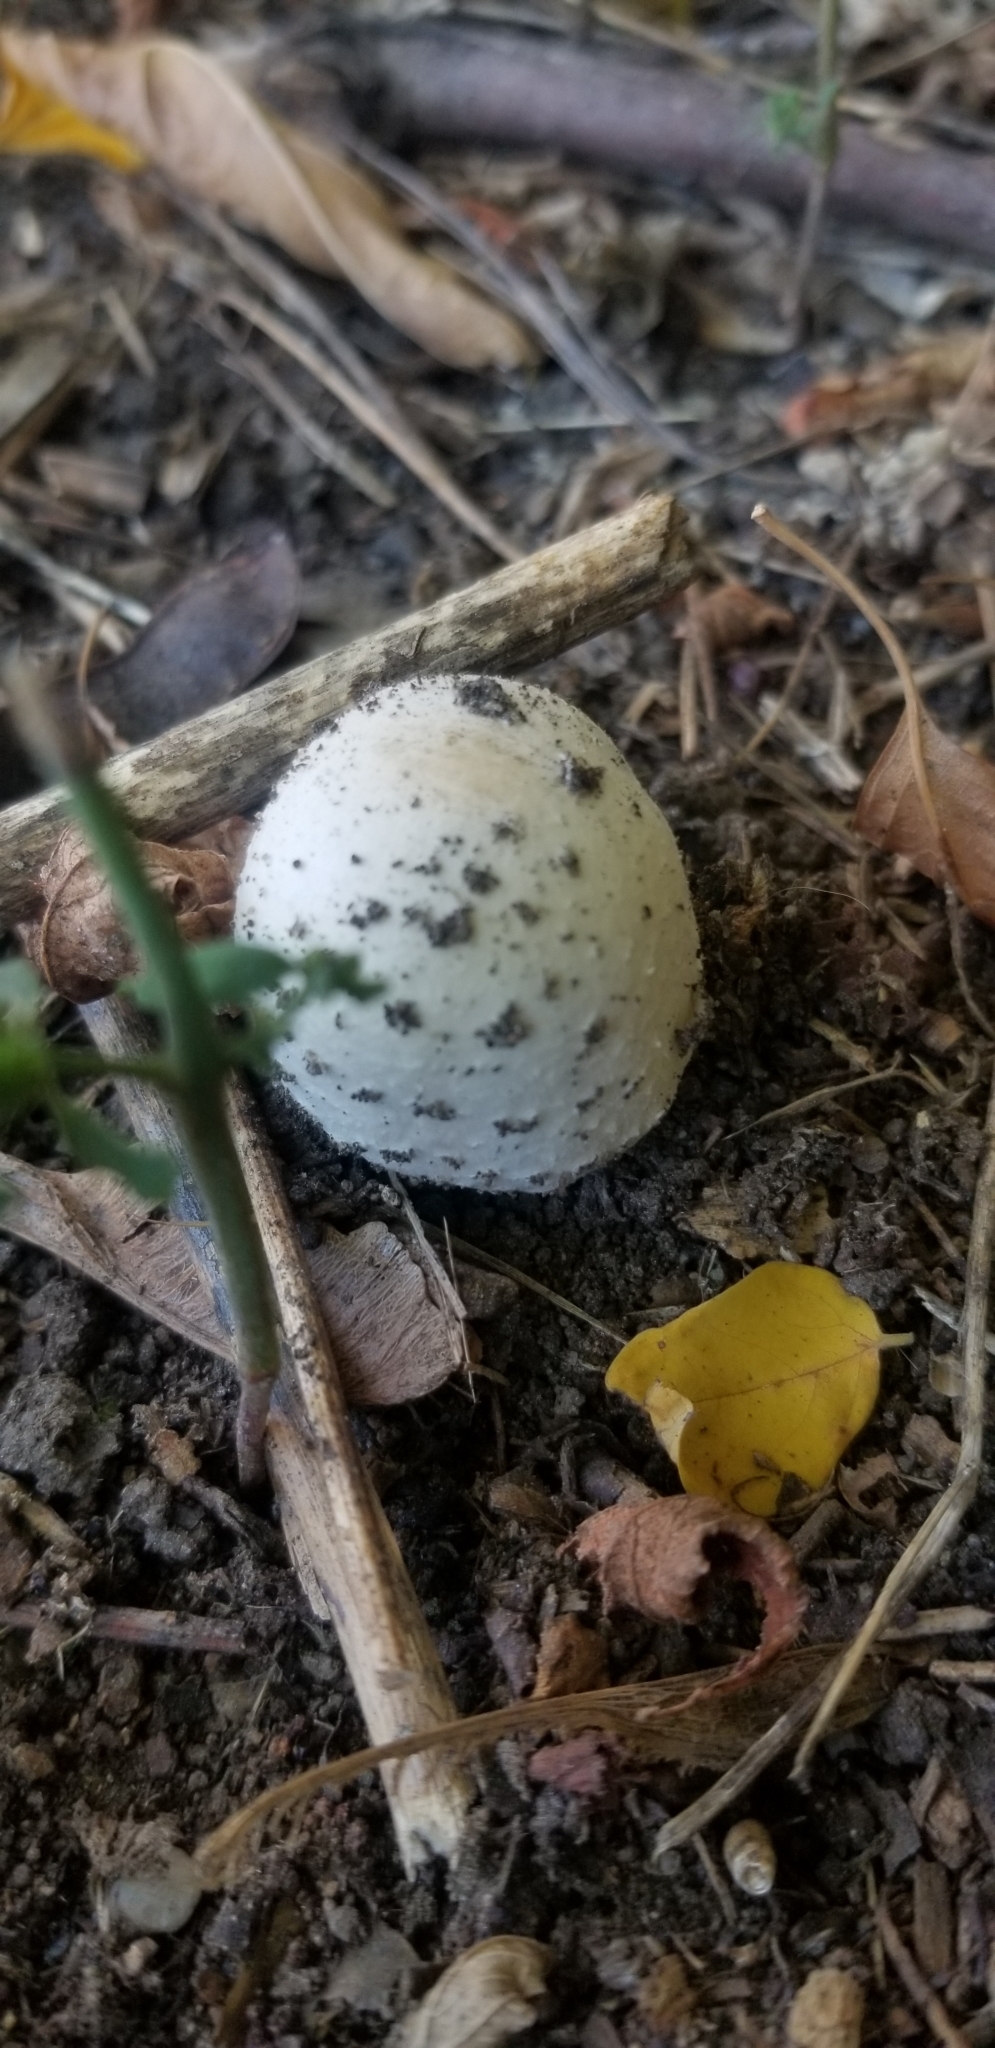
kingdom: Fungi
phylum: Basidiomycota
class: Agaricomycetes
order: Agaricales
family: Agaricaceae
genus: Coprinus
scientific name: Coprinus comatus
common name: Lawyer's wig
